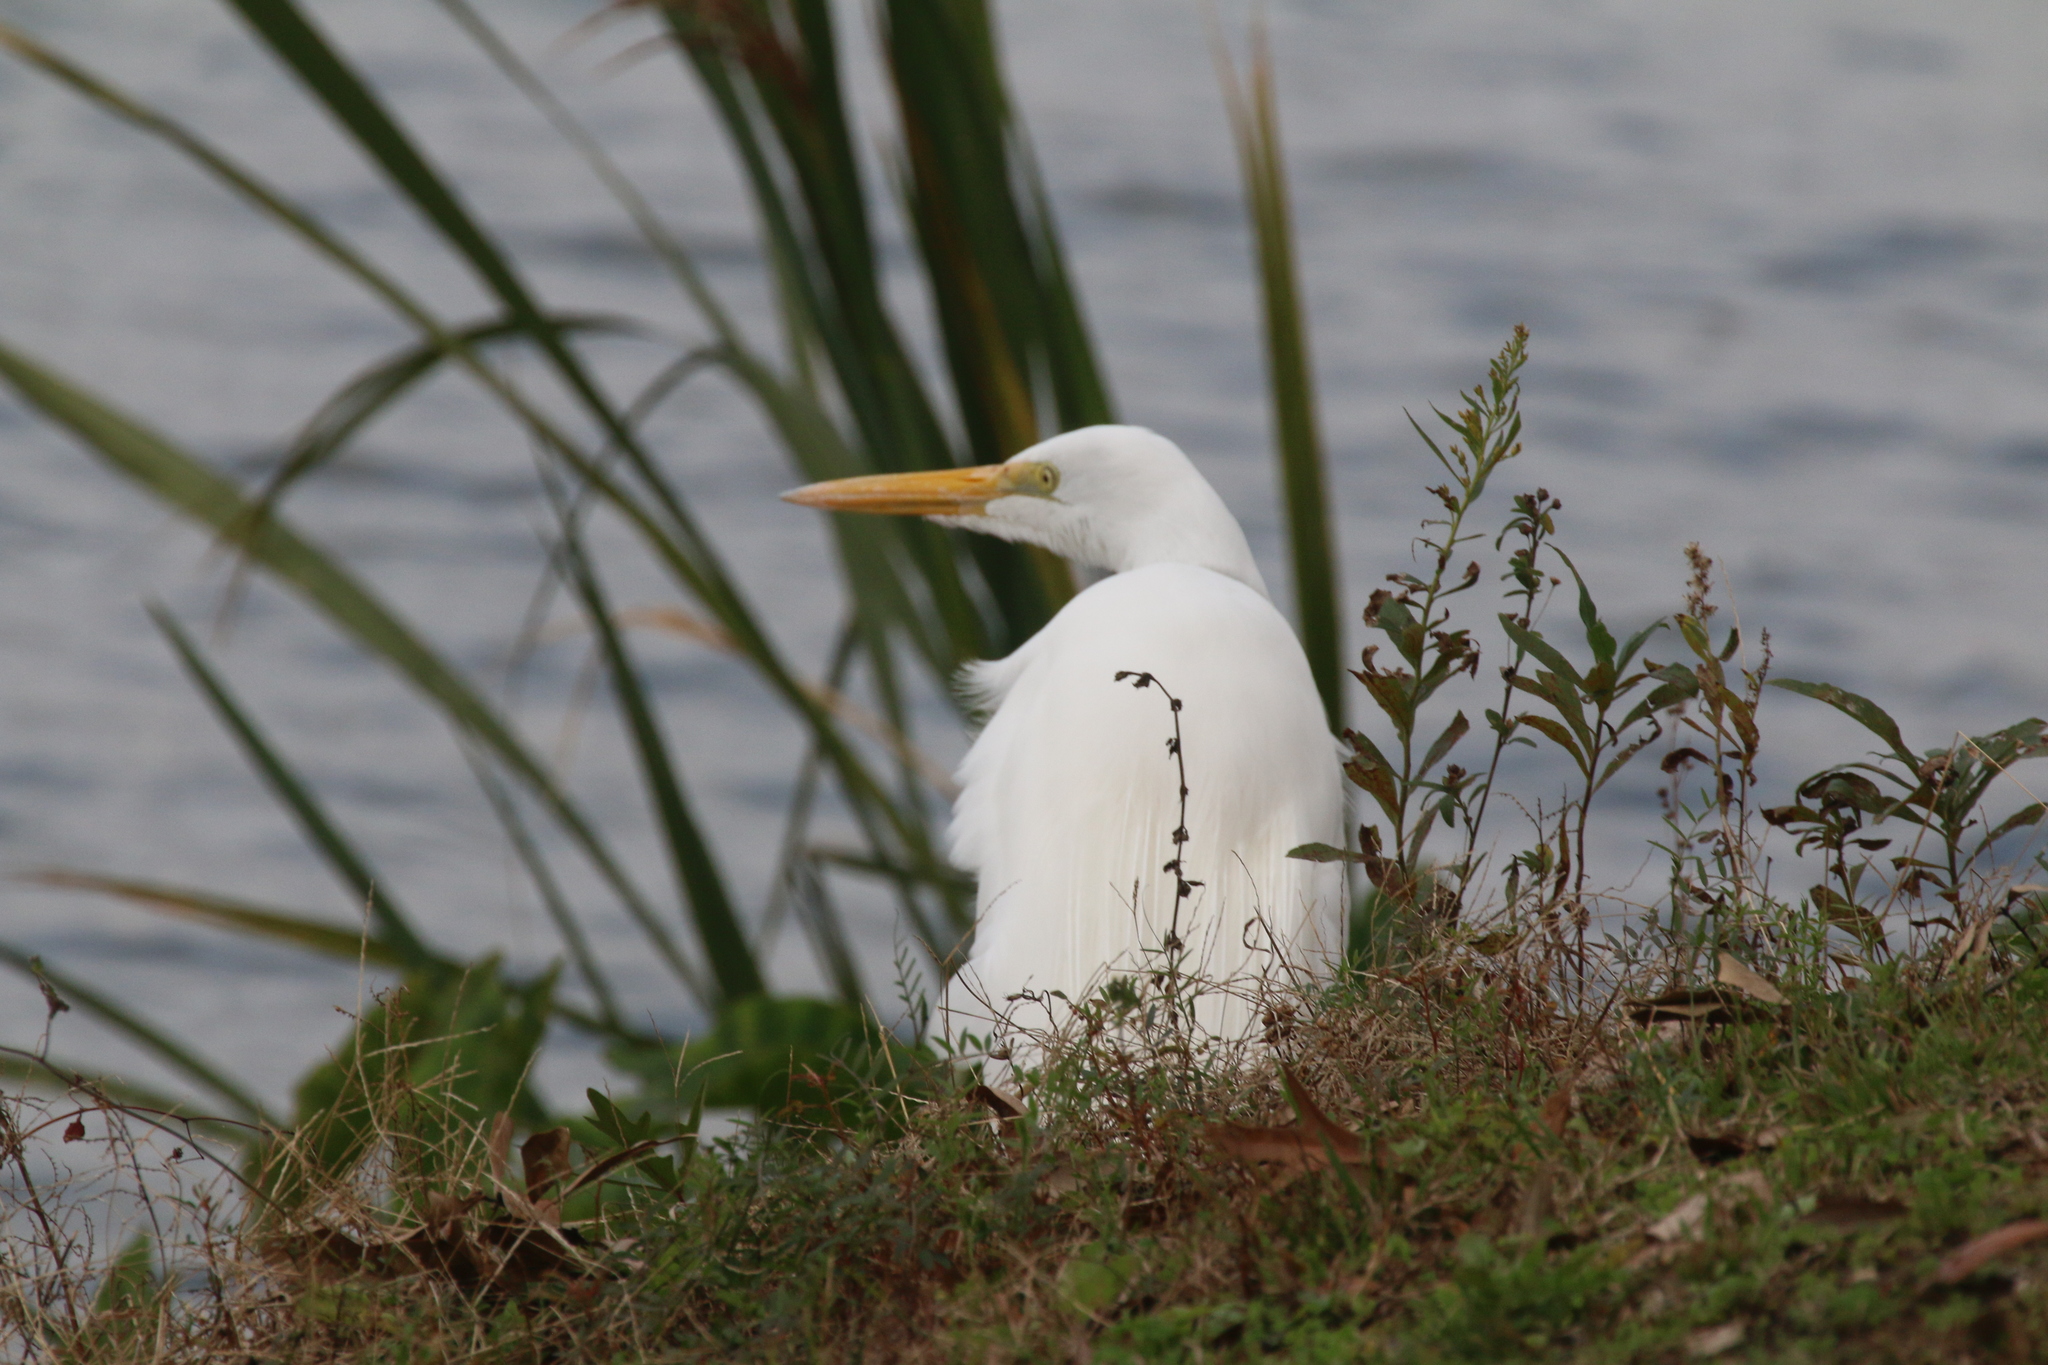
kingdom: Animalia
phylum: Chordata
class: Aves
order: Pelecaniformes
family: Ardeidae
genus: Ardea
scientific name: Ardea alba
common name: Great egret
